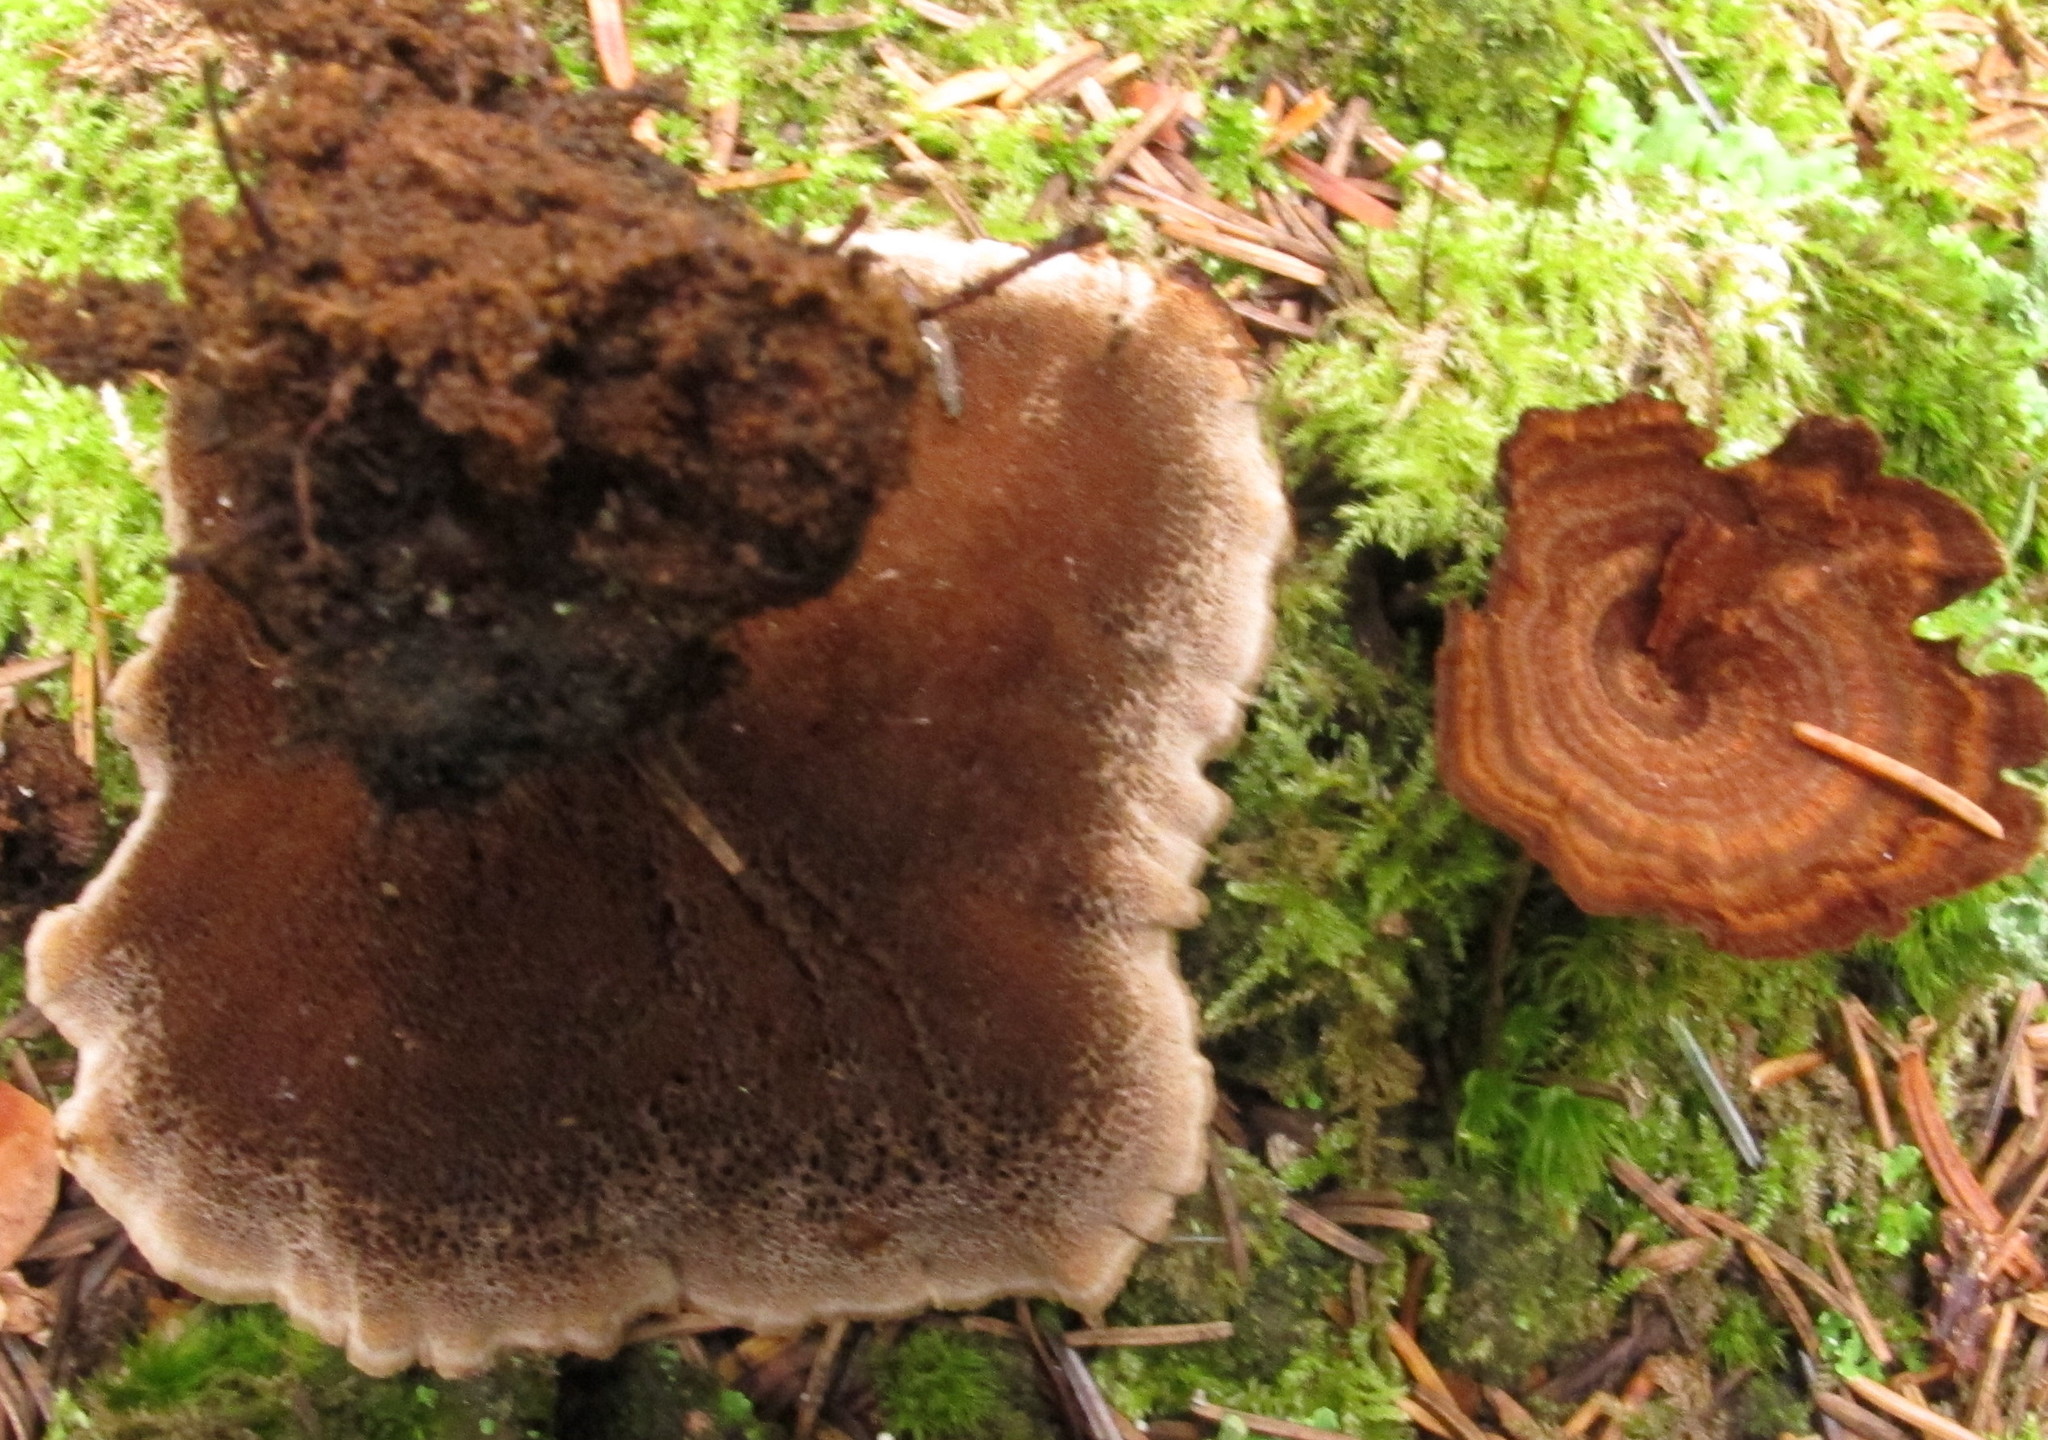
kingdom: Fungi
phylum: Basidiomycota
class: Agaricomycetes
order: Hymenochaetales
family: Hymenochaetaceae
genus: Coltricia
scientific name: Coltricia cinnamomea
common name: Shiny cinnamon polypore
